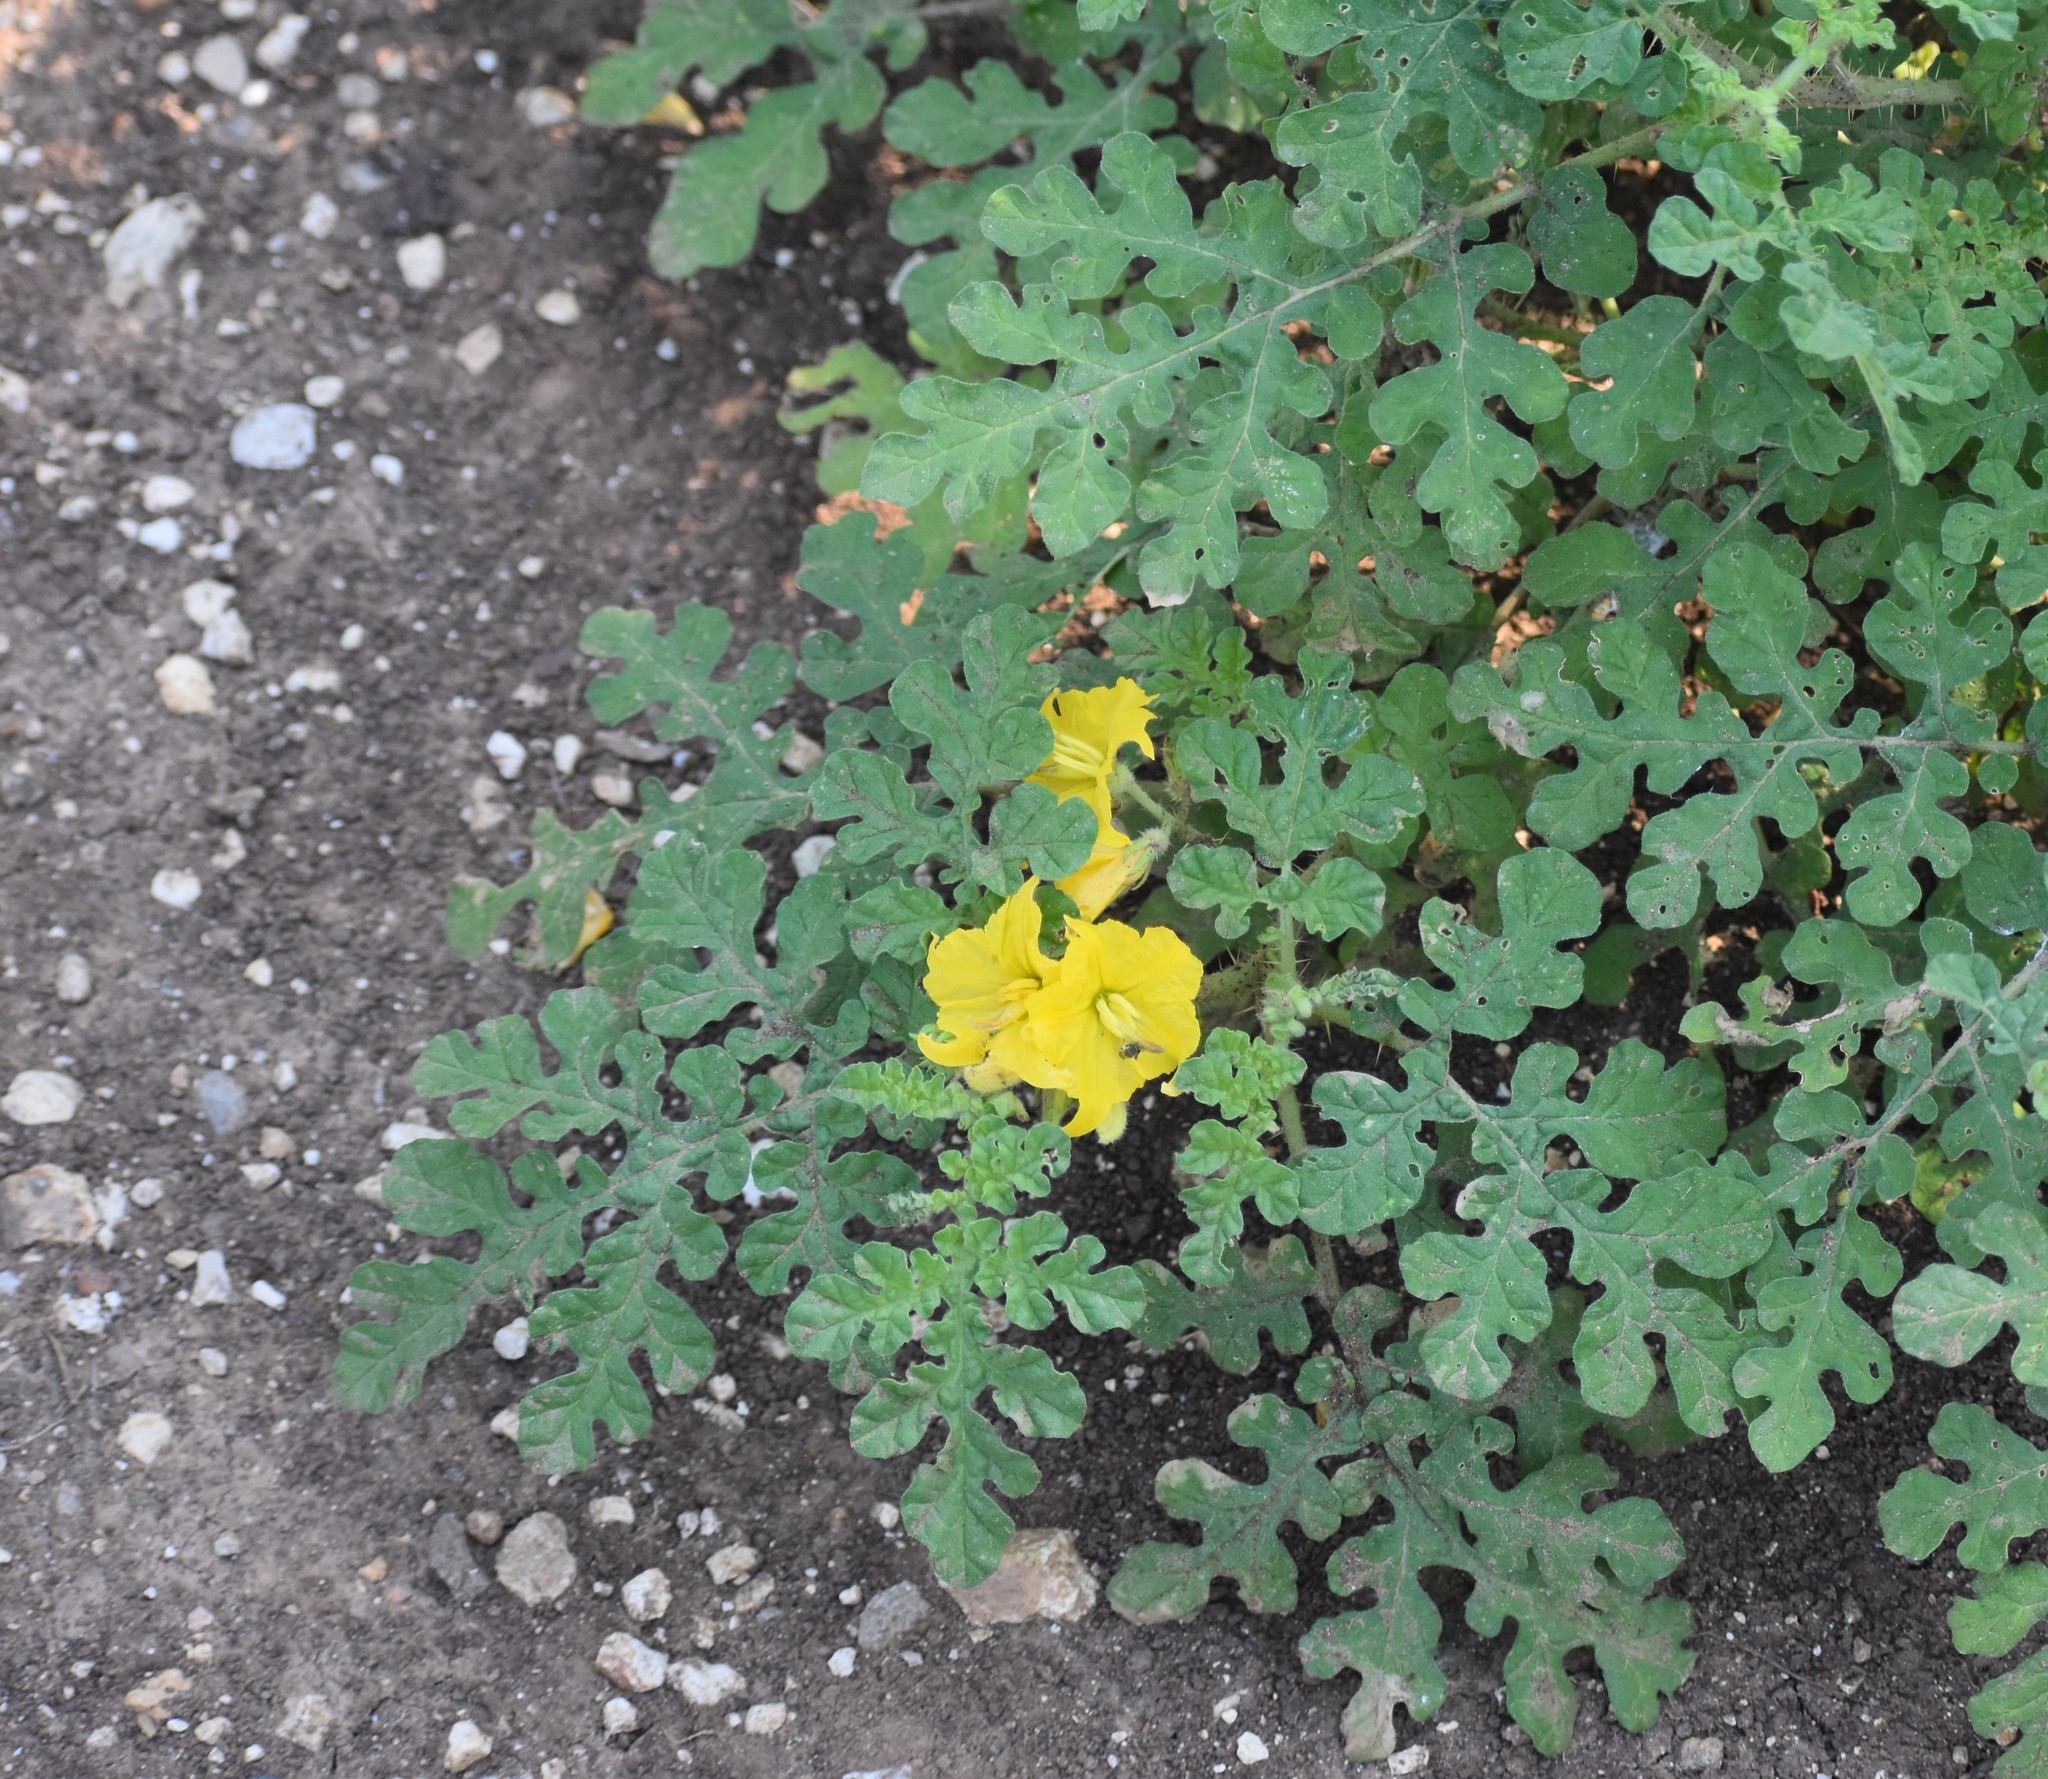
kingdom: Plantae
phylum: Tracheophyta
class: Magnoliopsida
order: Solanales
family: Solanaceae
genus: Solanum
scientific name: Solanum angustifolium
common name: Buffalobur nightshade
